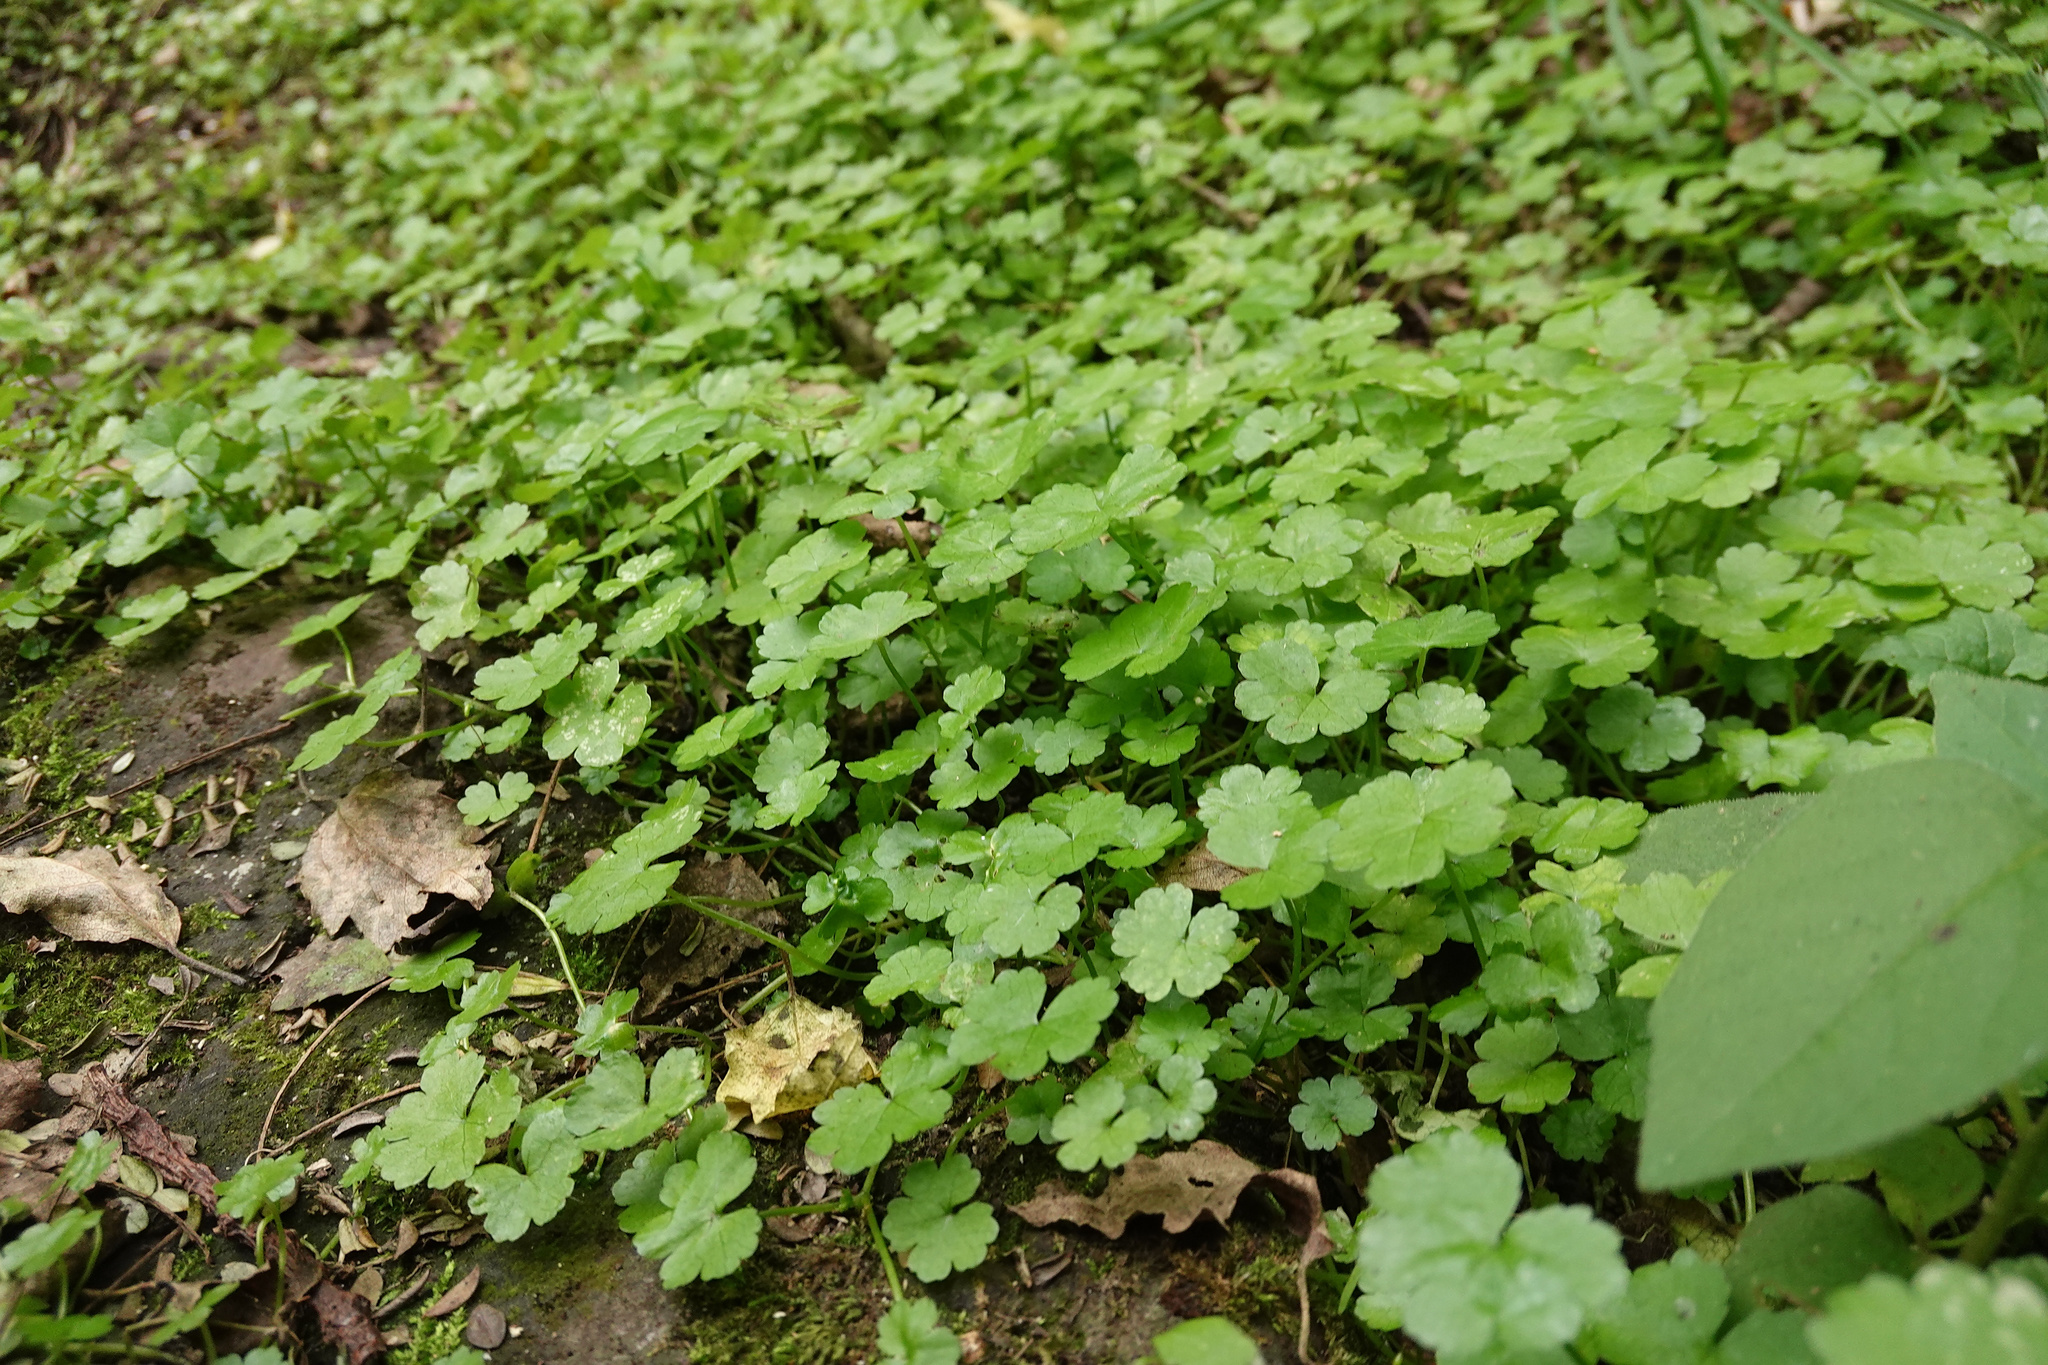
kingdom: Plantae
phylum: Tracheophyta
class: Magnoliopsida
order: Apiales
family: Araliaceae
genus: Hydrocotyle
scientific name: Hydrocotyle heteromeria
